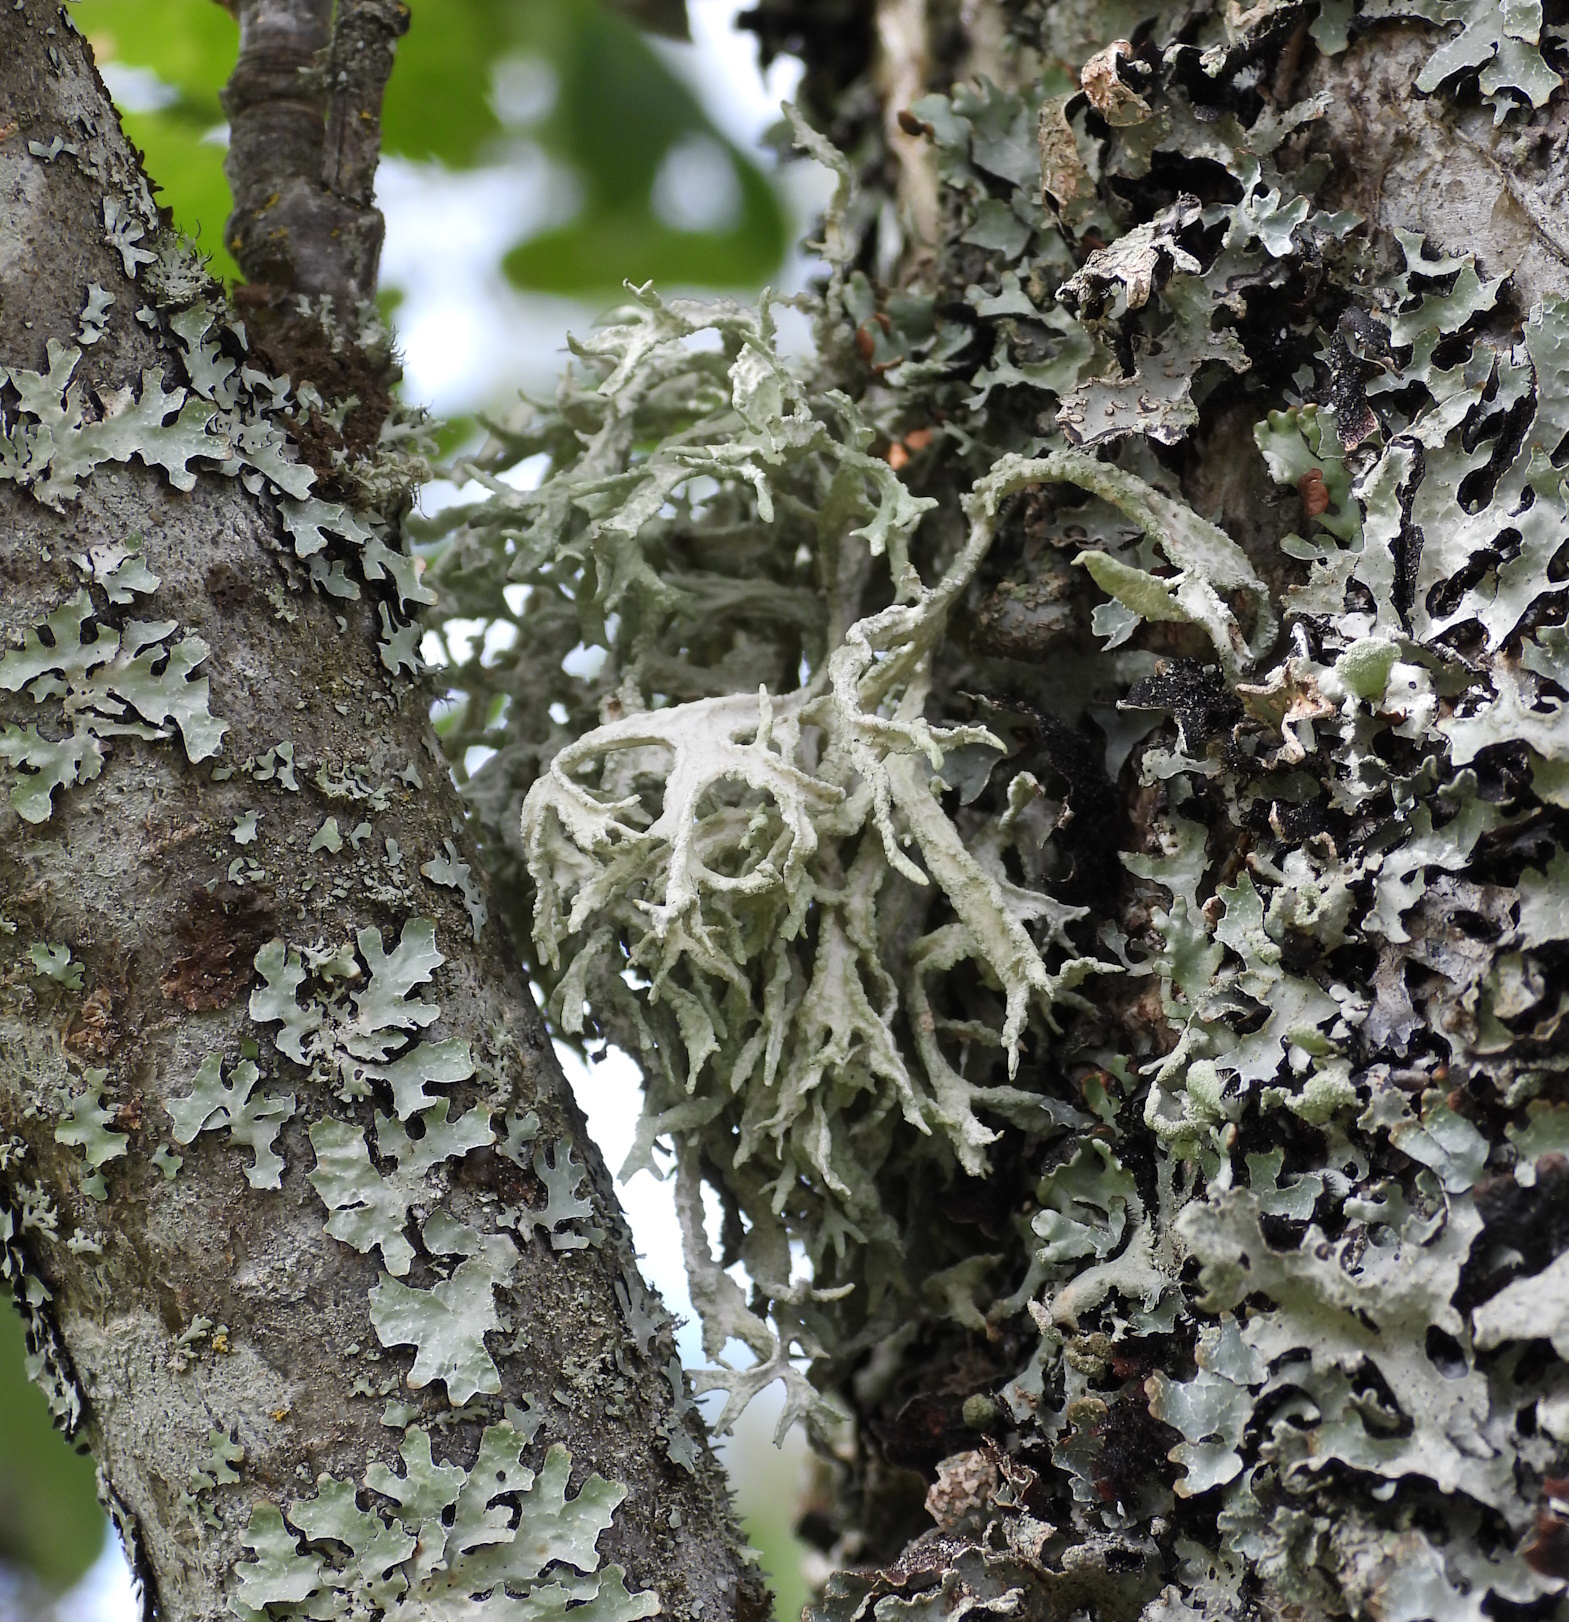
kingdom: Fungi
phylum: Ascomycota
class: Lecanoromycetes
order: Lecanorales
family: Parmeliaceae
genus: Evernia
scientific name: Evernia prunastri
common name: Oak moss
